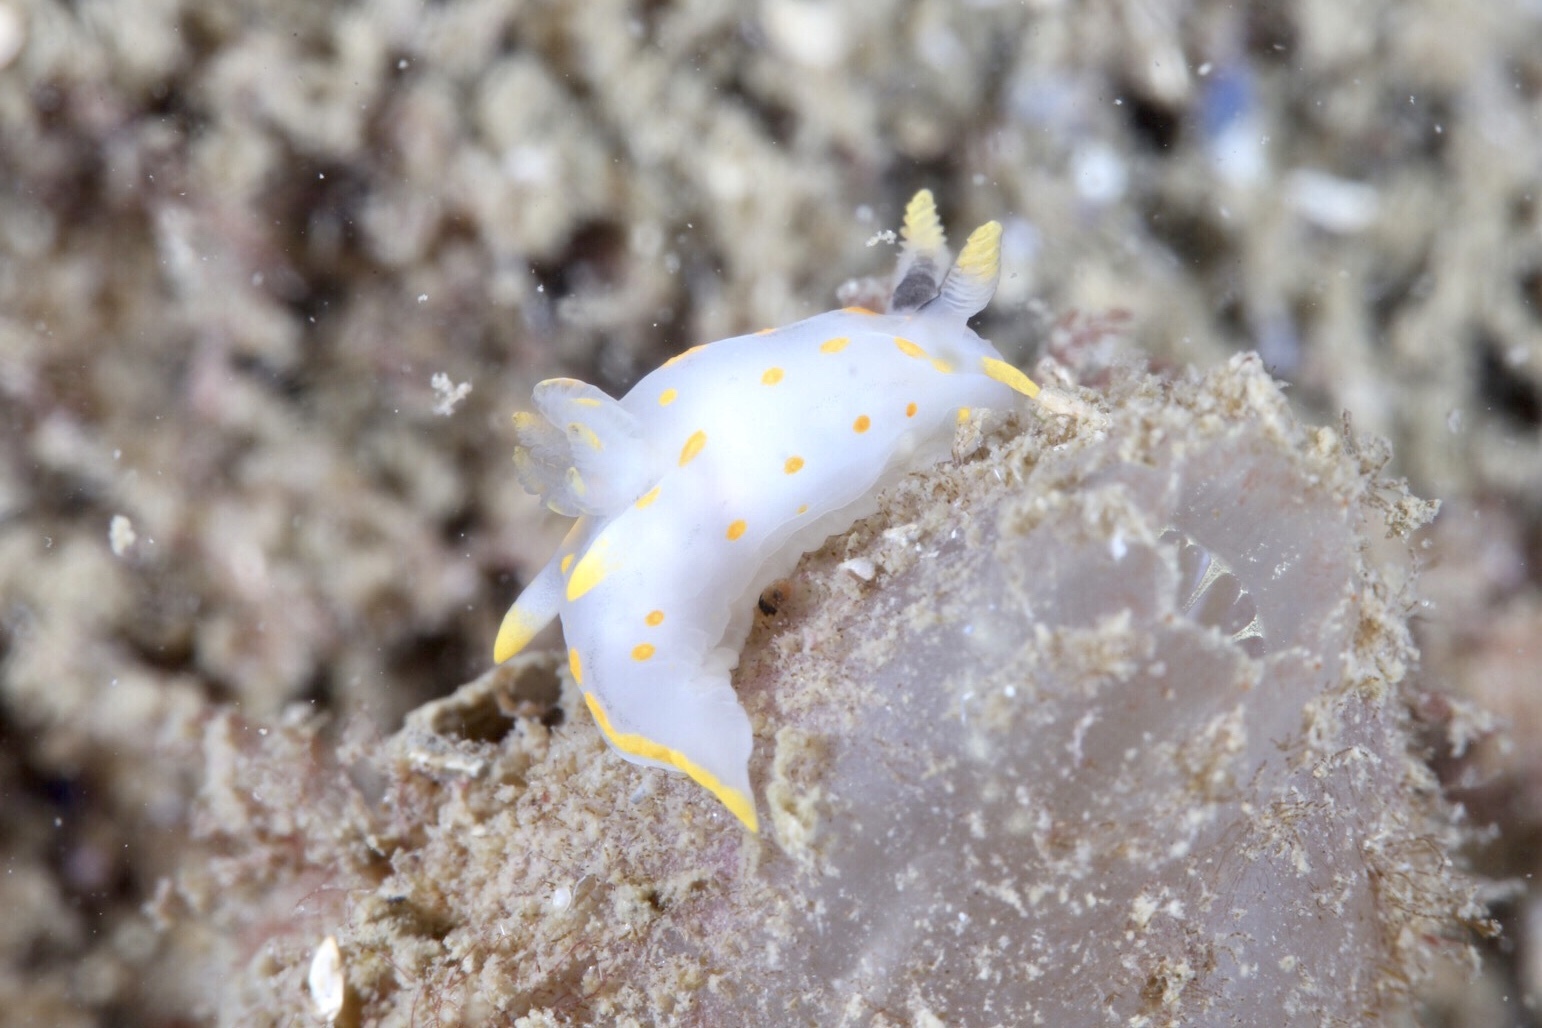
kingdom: Animalia
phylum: Mollusca
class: Gastropoda
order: Nudibranchia
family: Polyceridae
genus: Polycera
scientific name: Polycera quadrilineata
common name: Four-striped polycera
